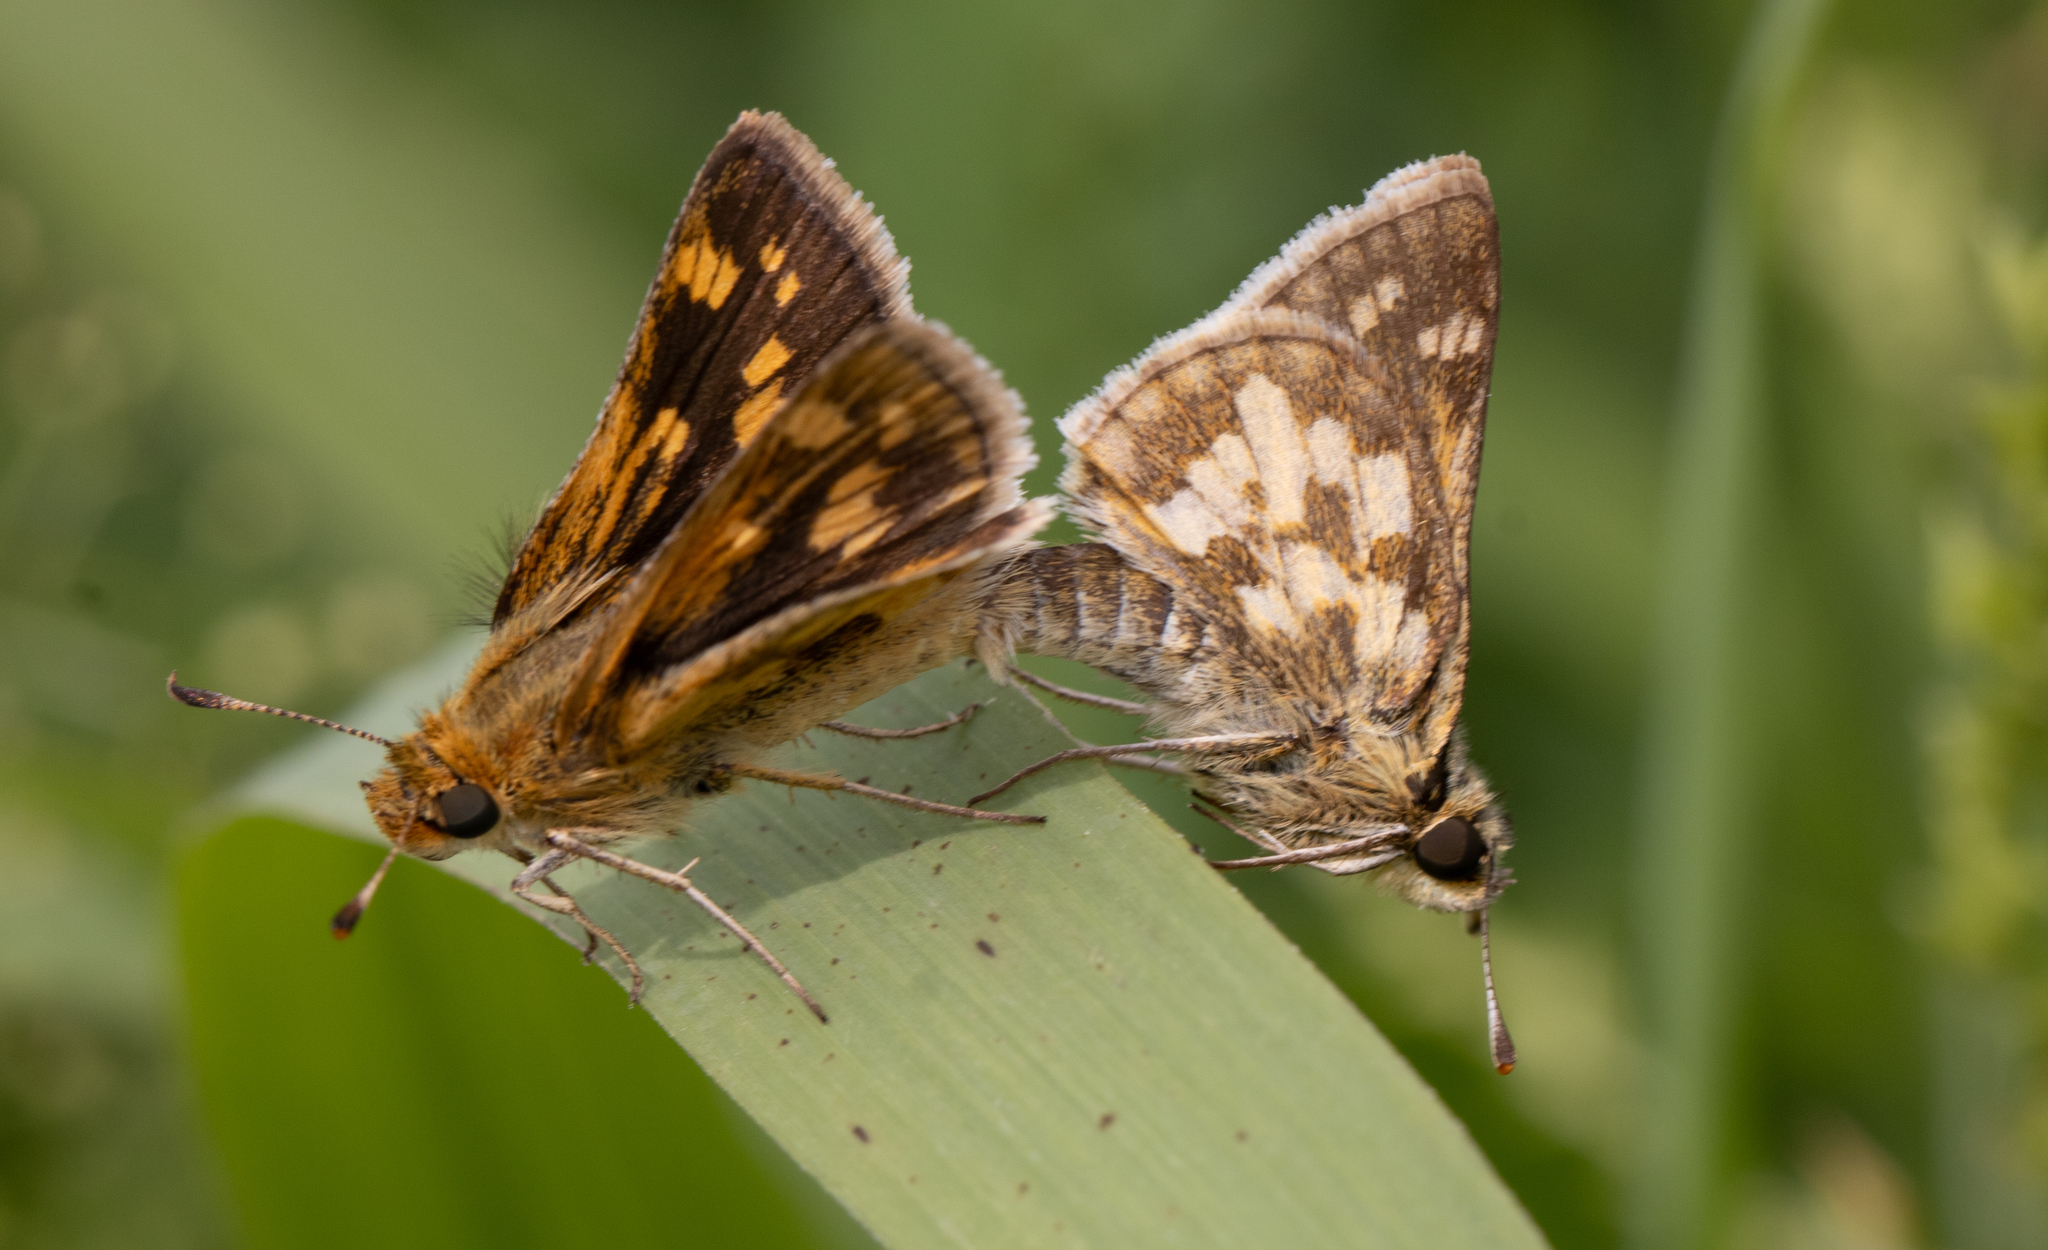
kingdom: Animalia
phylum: Arthropoda
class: Insecta
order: Lepidoptera
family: Hesperiidae
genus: Polites
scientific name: Polites coras
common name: Peck's skipper
